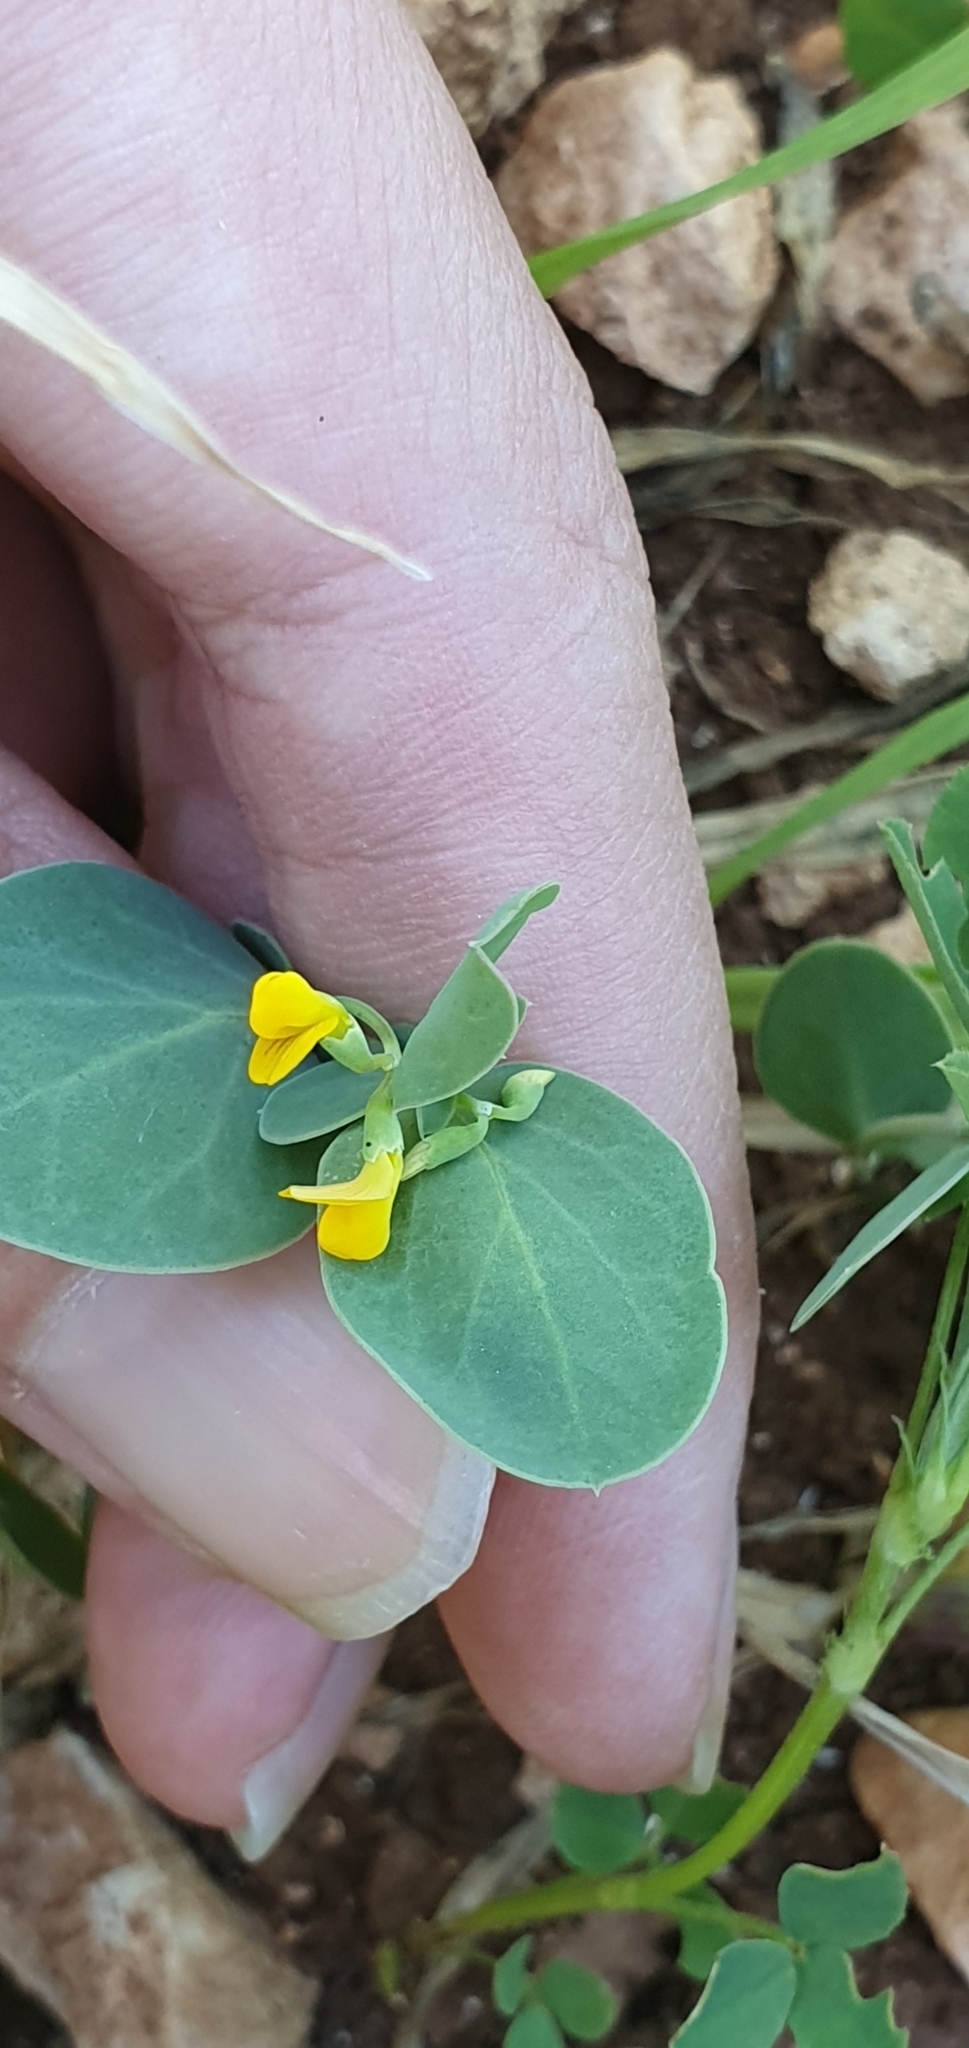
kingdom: Plantae
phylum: Tracheophyta
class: Magnoliopsida
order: Fabales
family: Fabaceae
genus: Coronilla
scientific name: Coronilla scorpioides
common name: Annual scorpion-vetch
